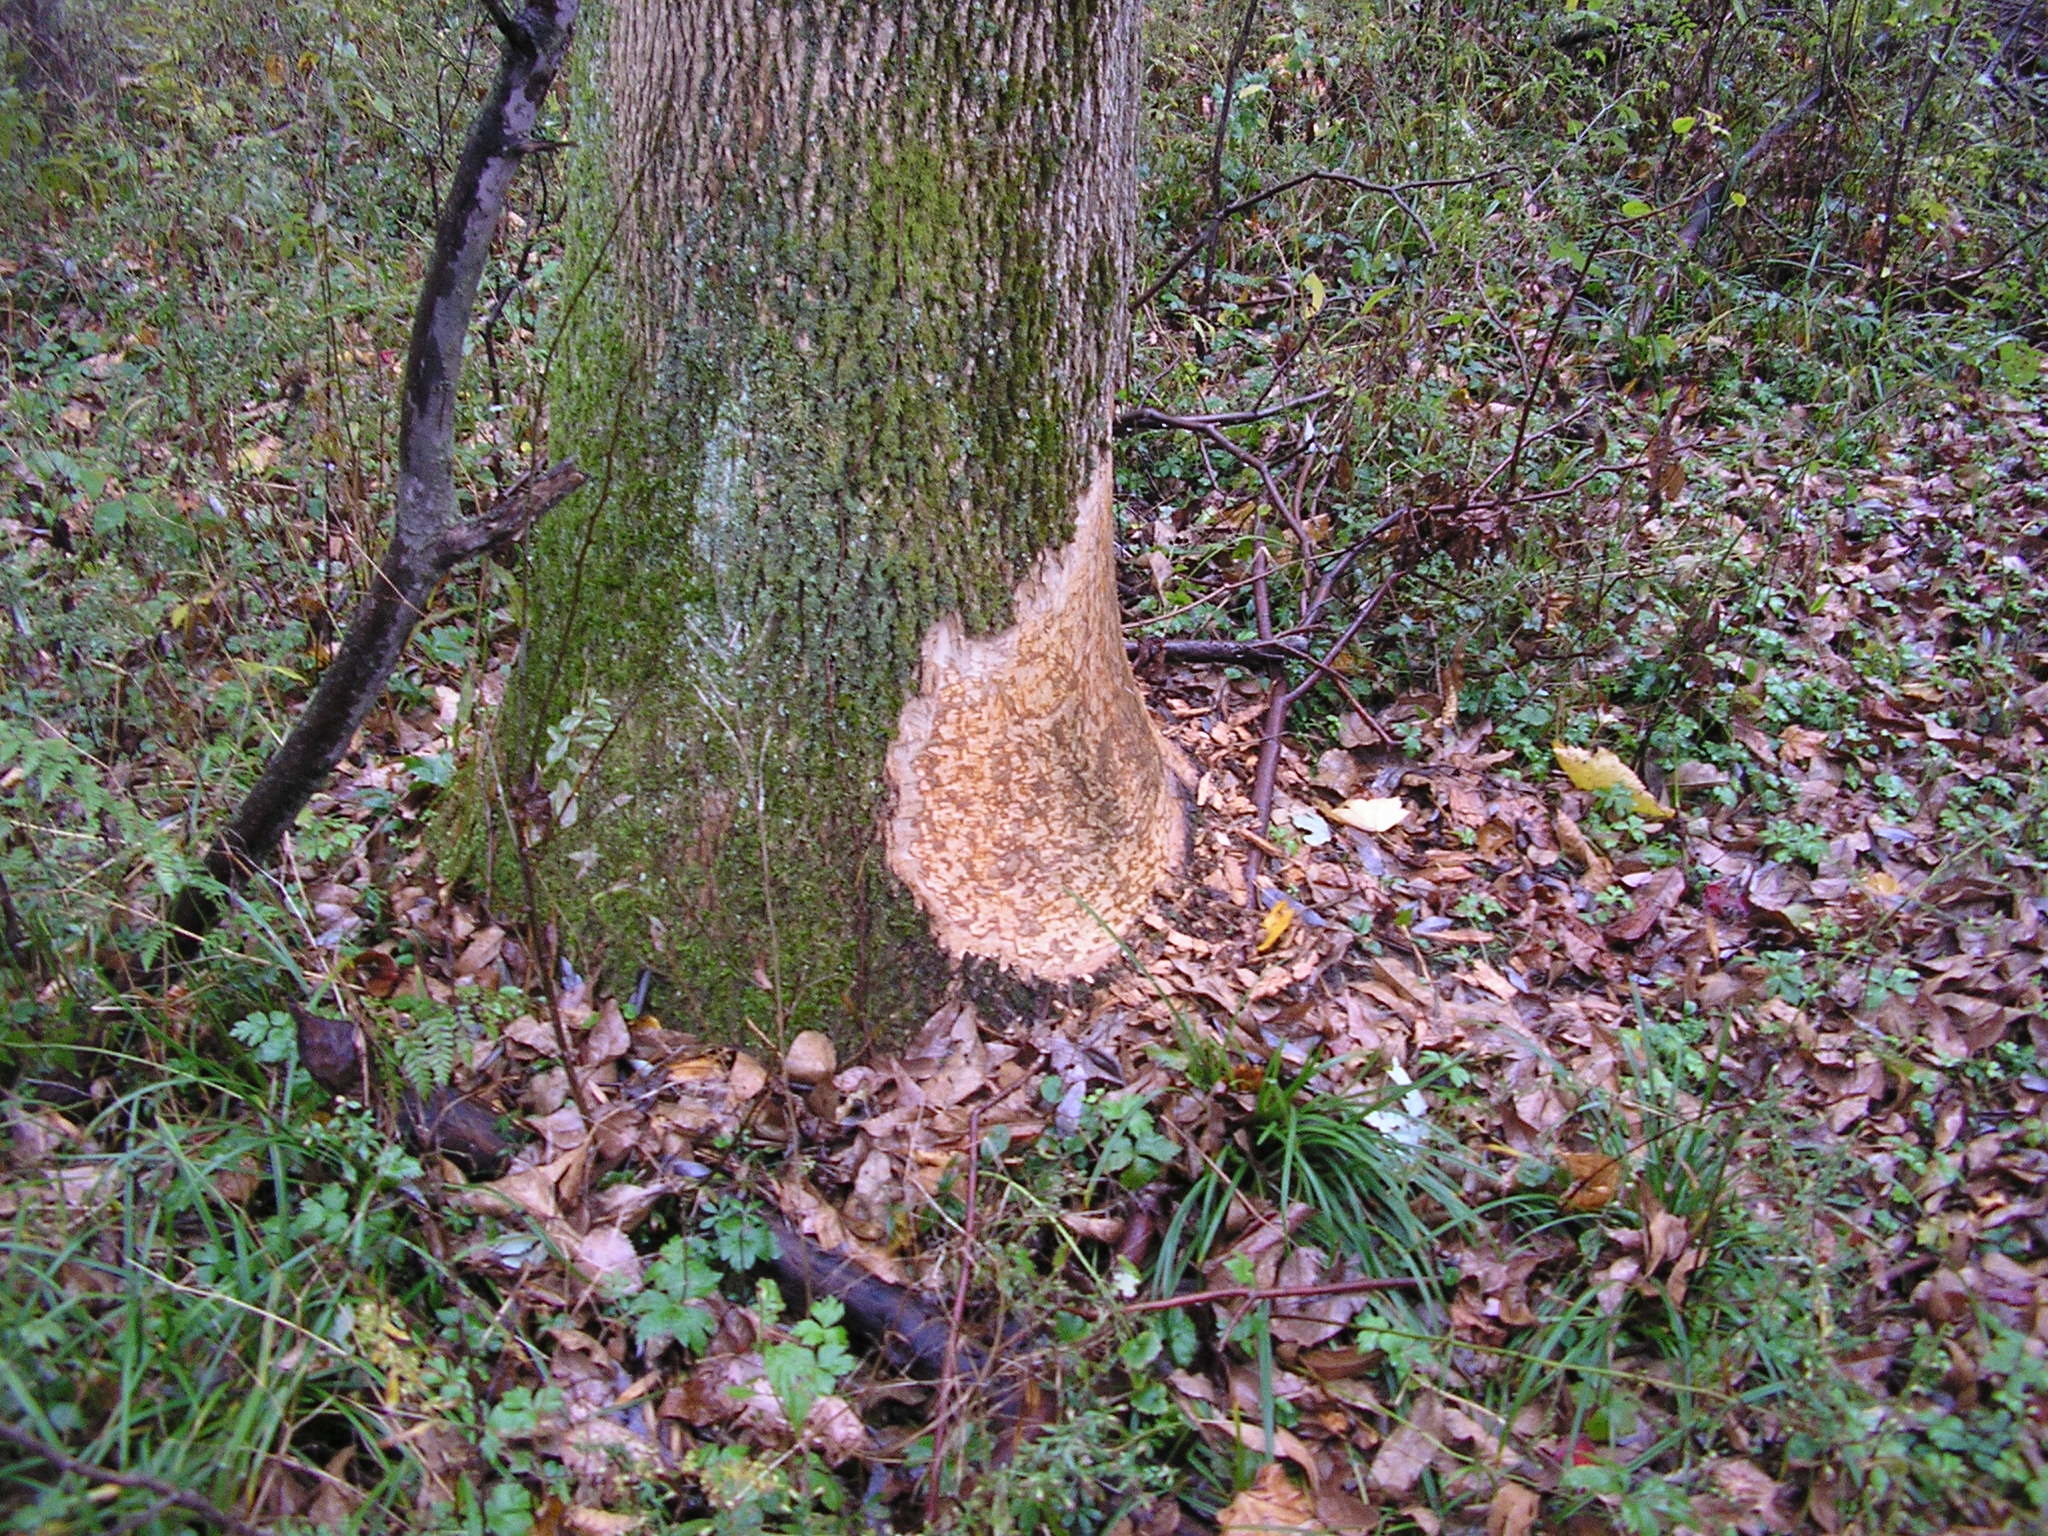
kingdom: Animalia
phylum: Chordata
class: Mammalia
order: Rodentia
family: Castoridae
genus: Castor
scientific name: Castor canadensis
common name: American beaver
